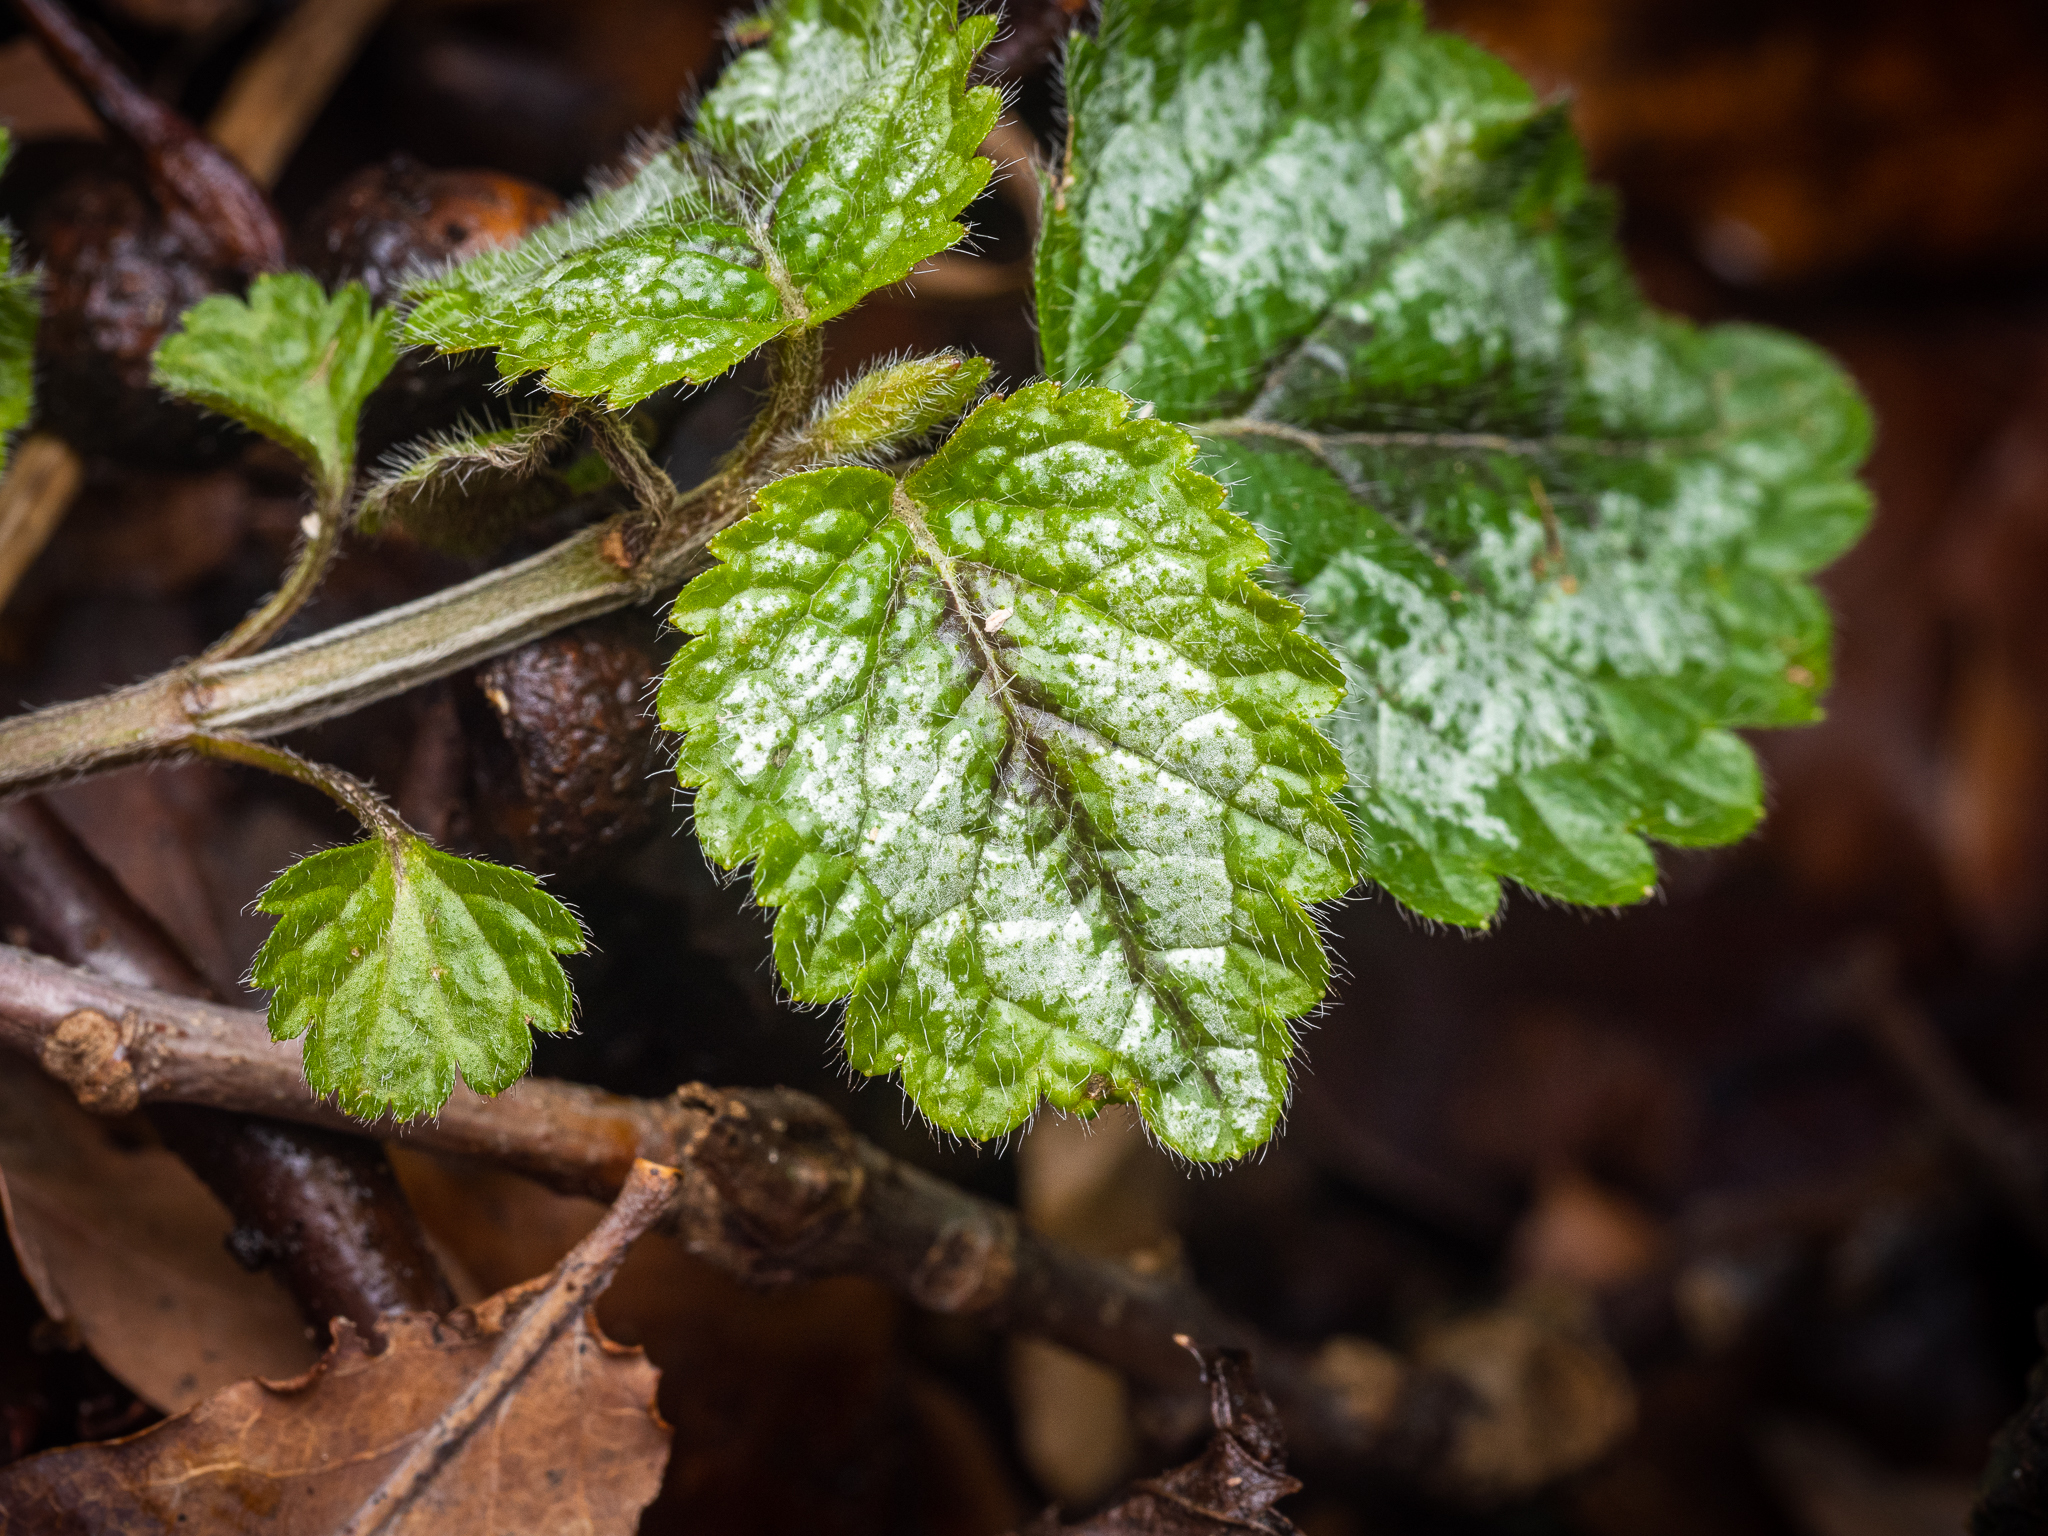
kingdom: Plantae
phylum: Tracheophyta
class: Magnoliopsida
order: Lamiales
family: Lamiaceae
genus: Lamium
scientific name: Lamium galeobdolon
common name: Yellow archangel
